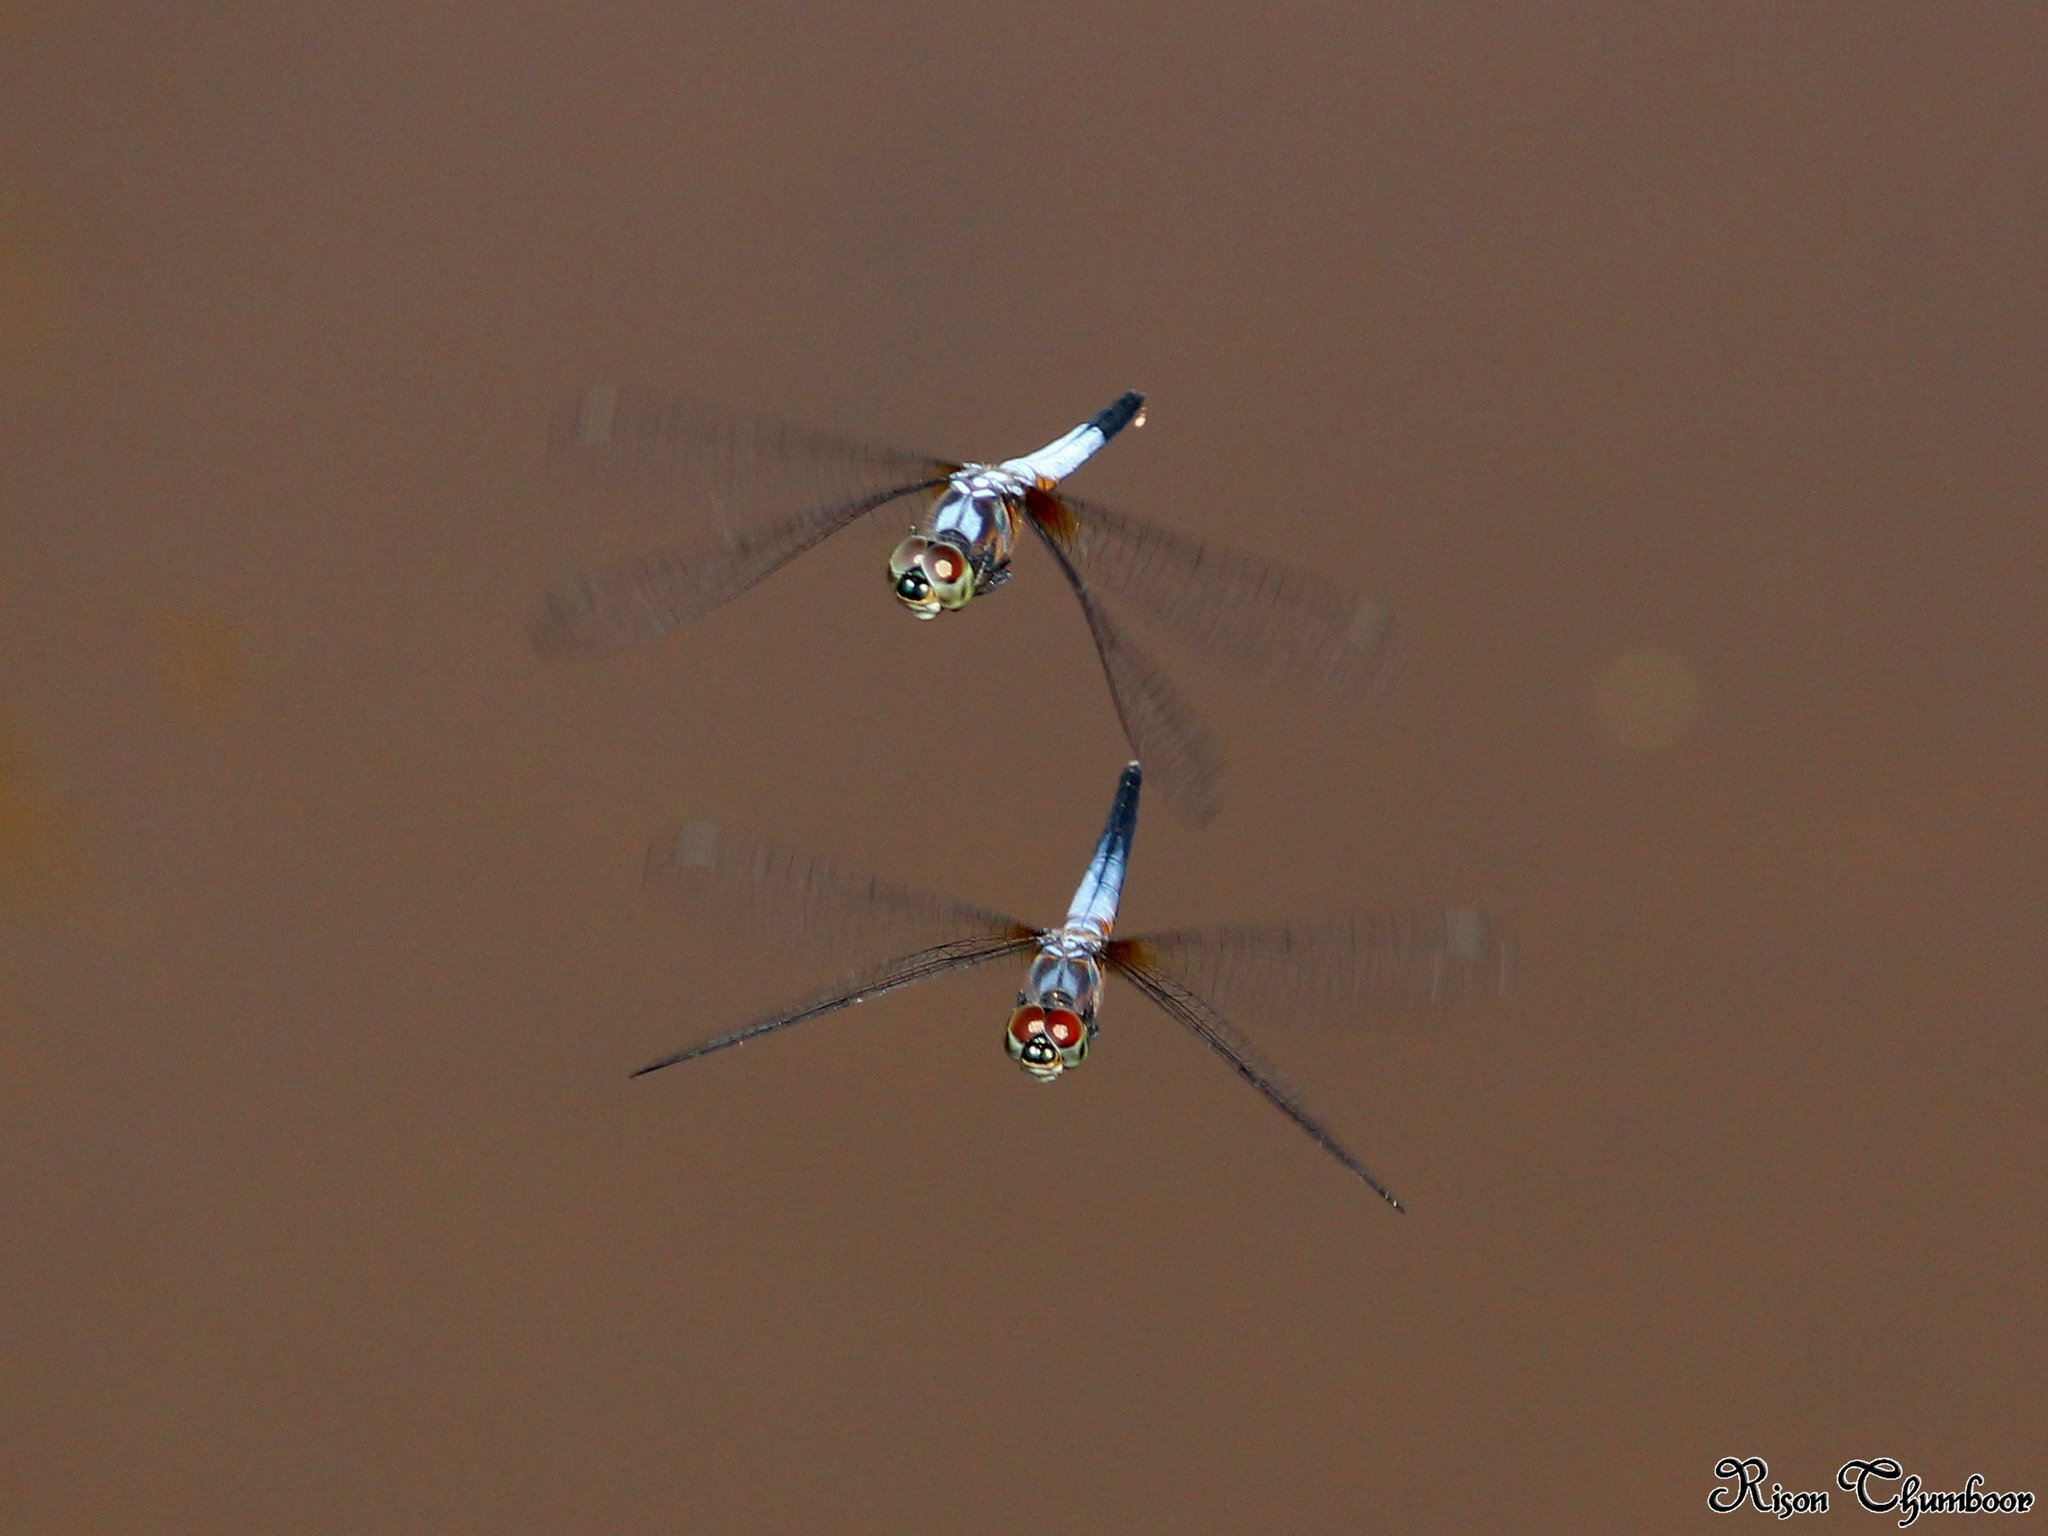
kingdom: Animalia
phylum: Arthropoda
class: Insecta
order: Odonata
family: Libellulidae
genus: Brachydiplax
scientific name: Brachydiplax chalybea
